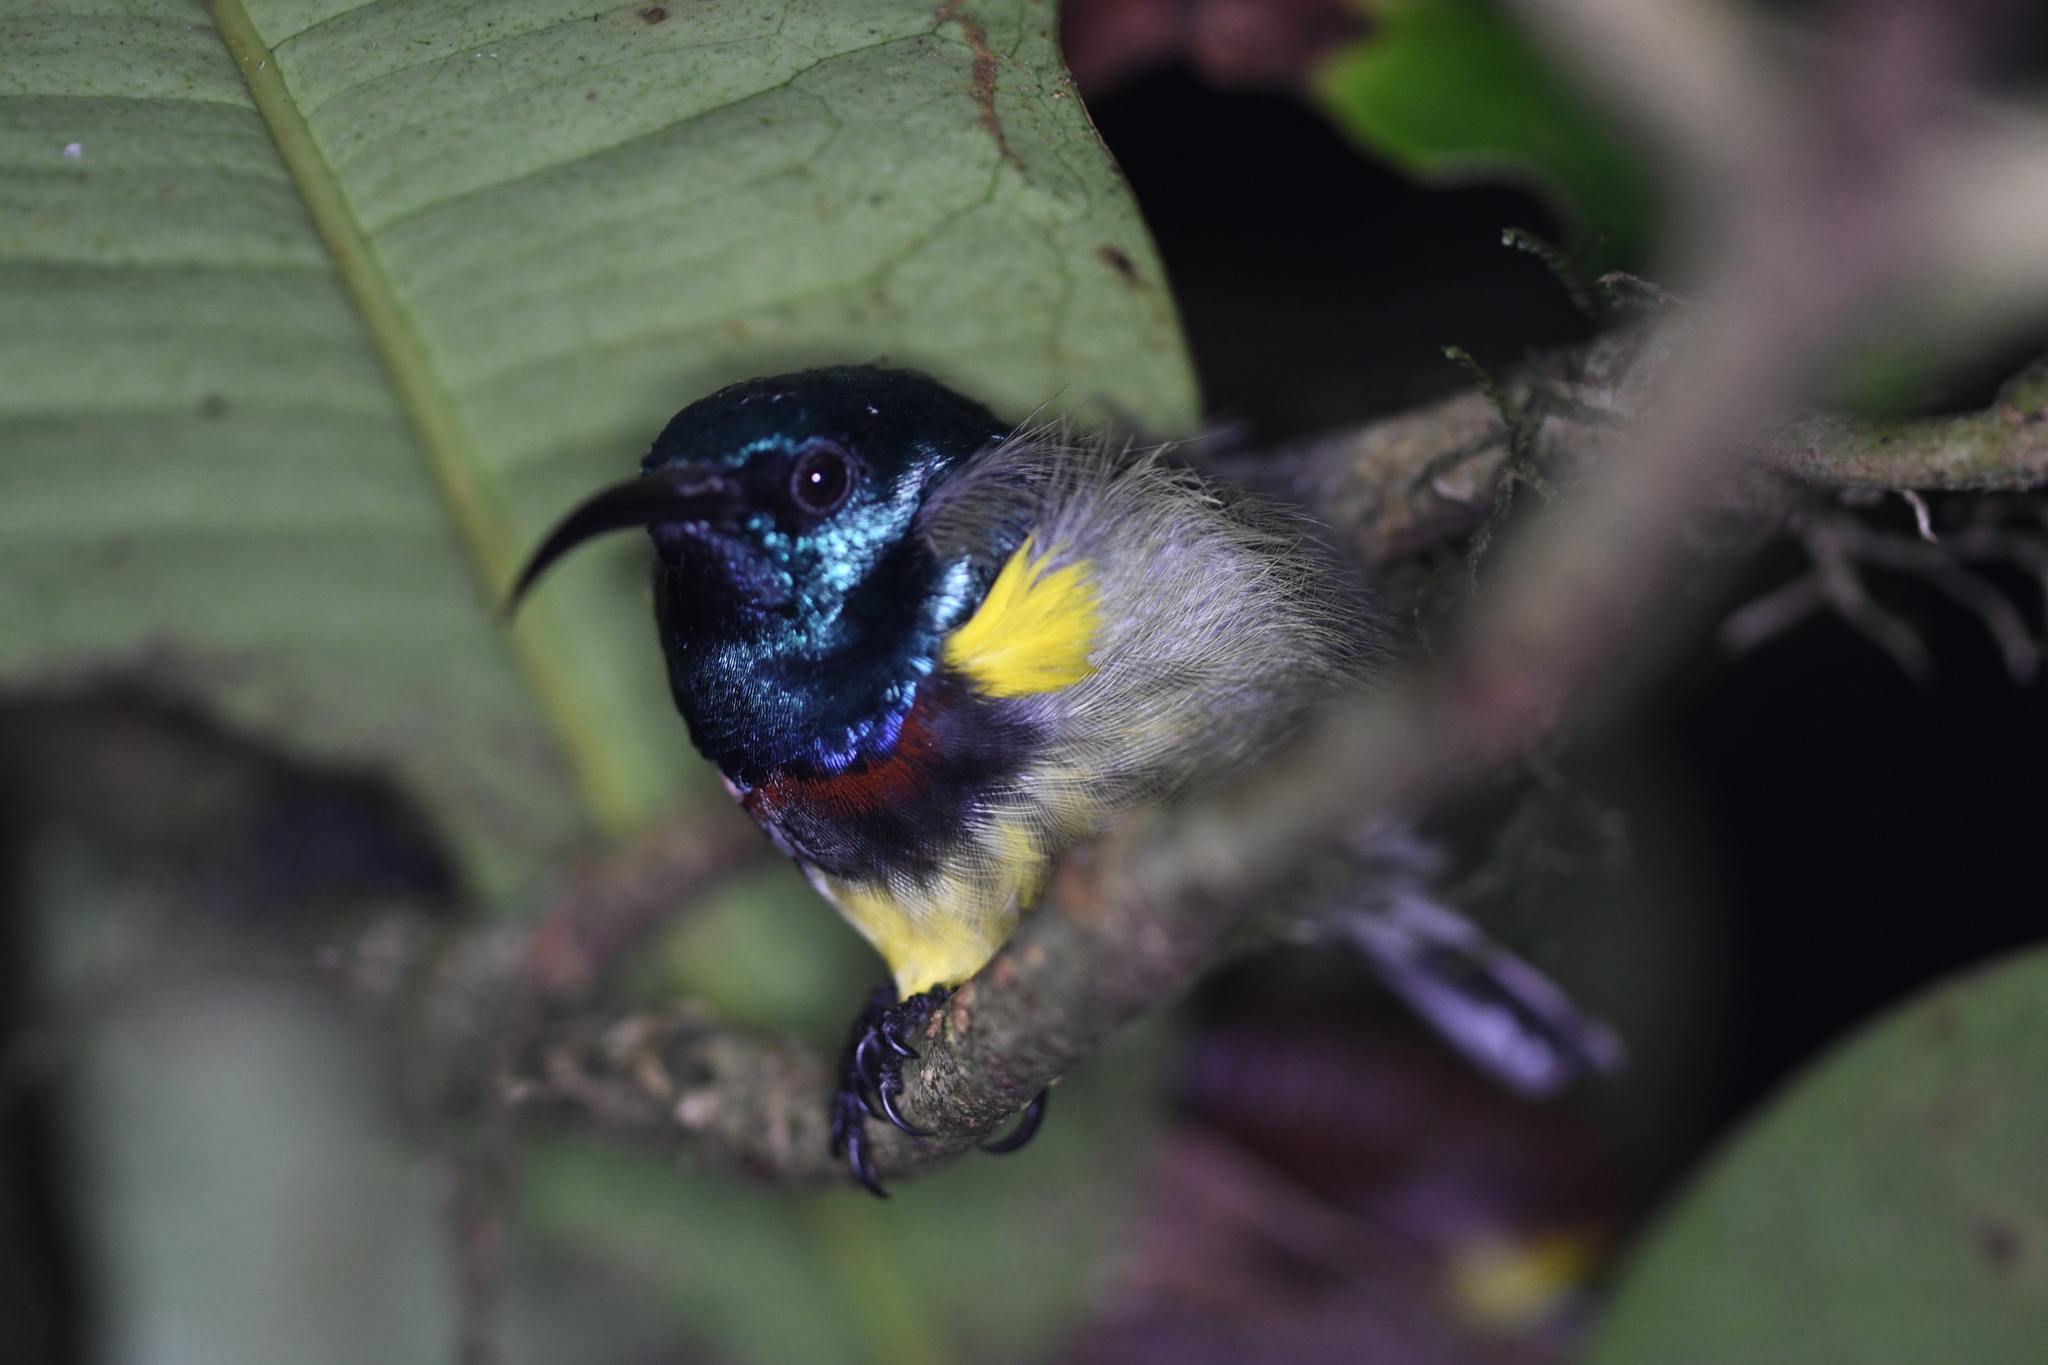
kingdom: Animalia
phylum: Chordata
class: Aves
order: Passeriformes
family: Nectariniidae
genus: Cinnyris
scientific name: Cinnyris sovimanga
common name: Souimanga sunbird
